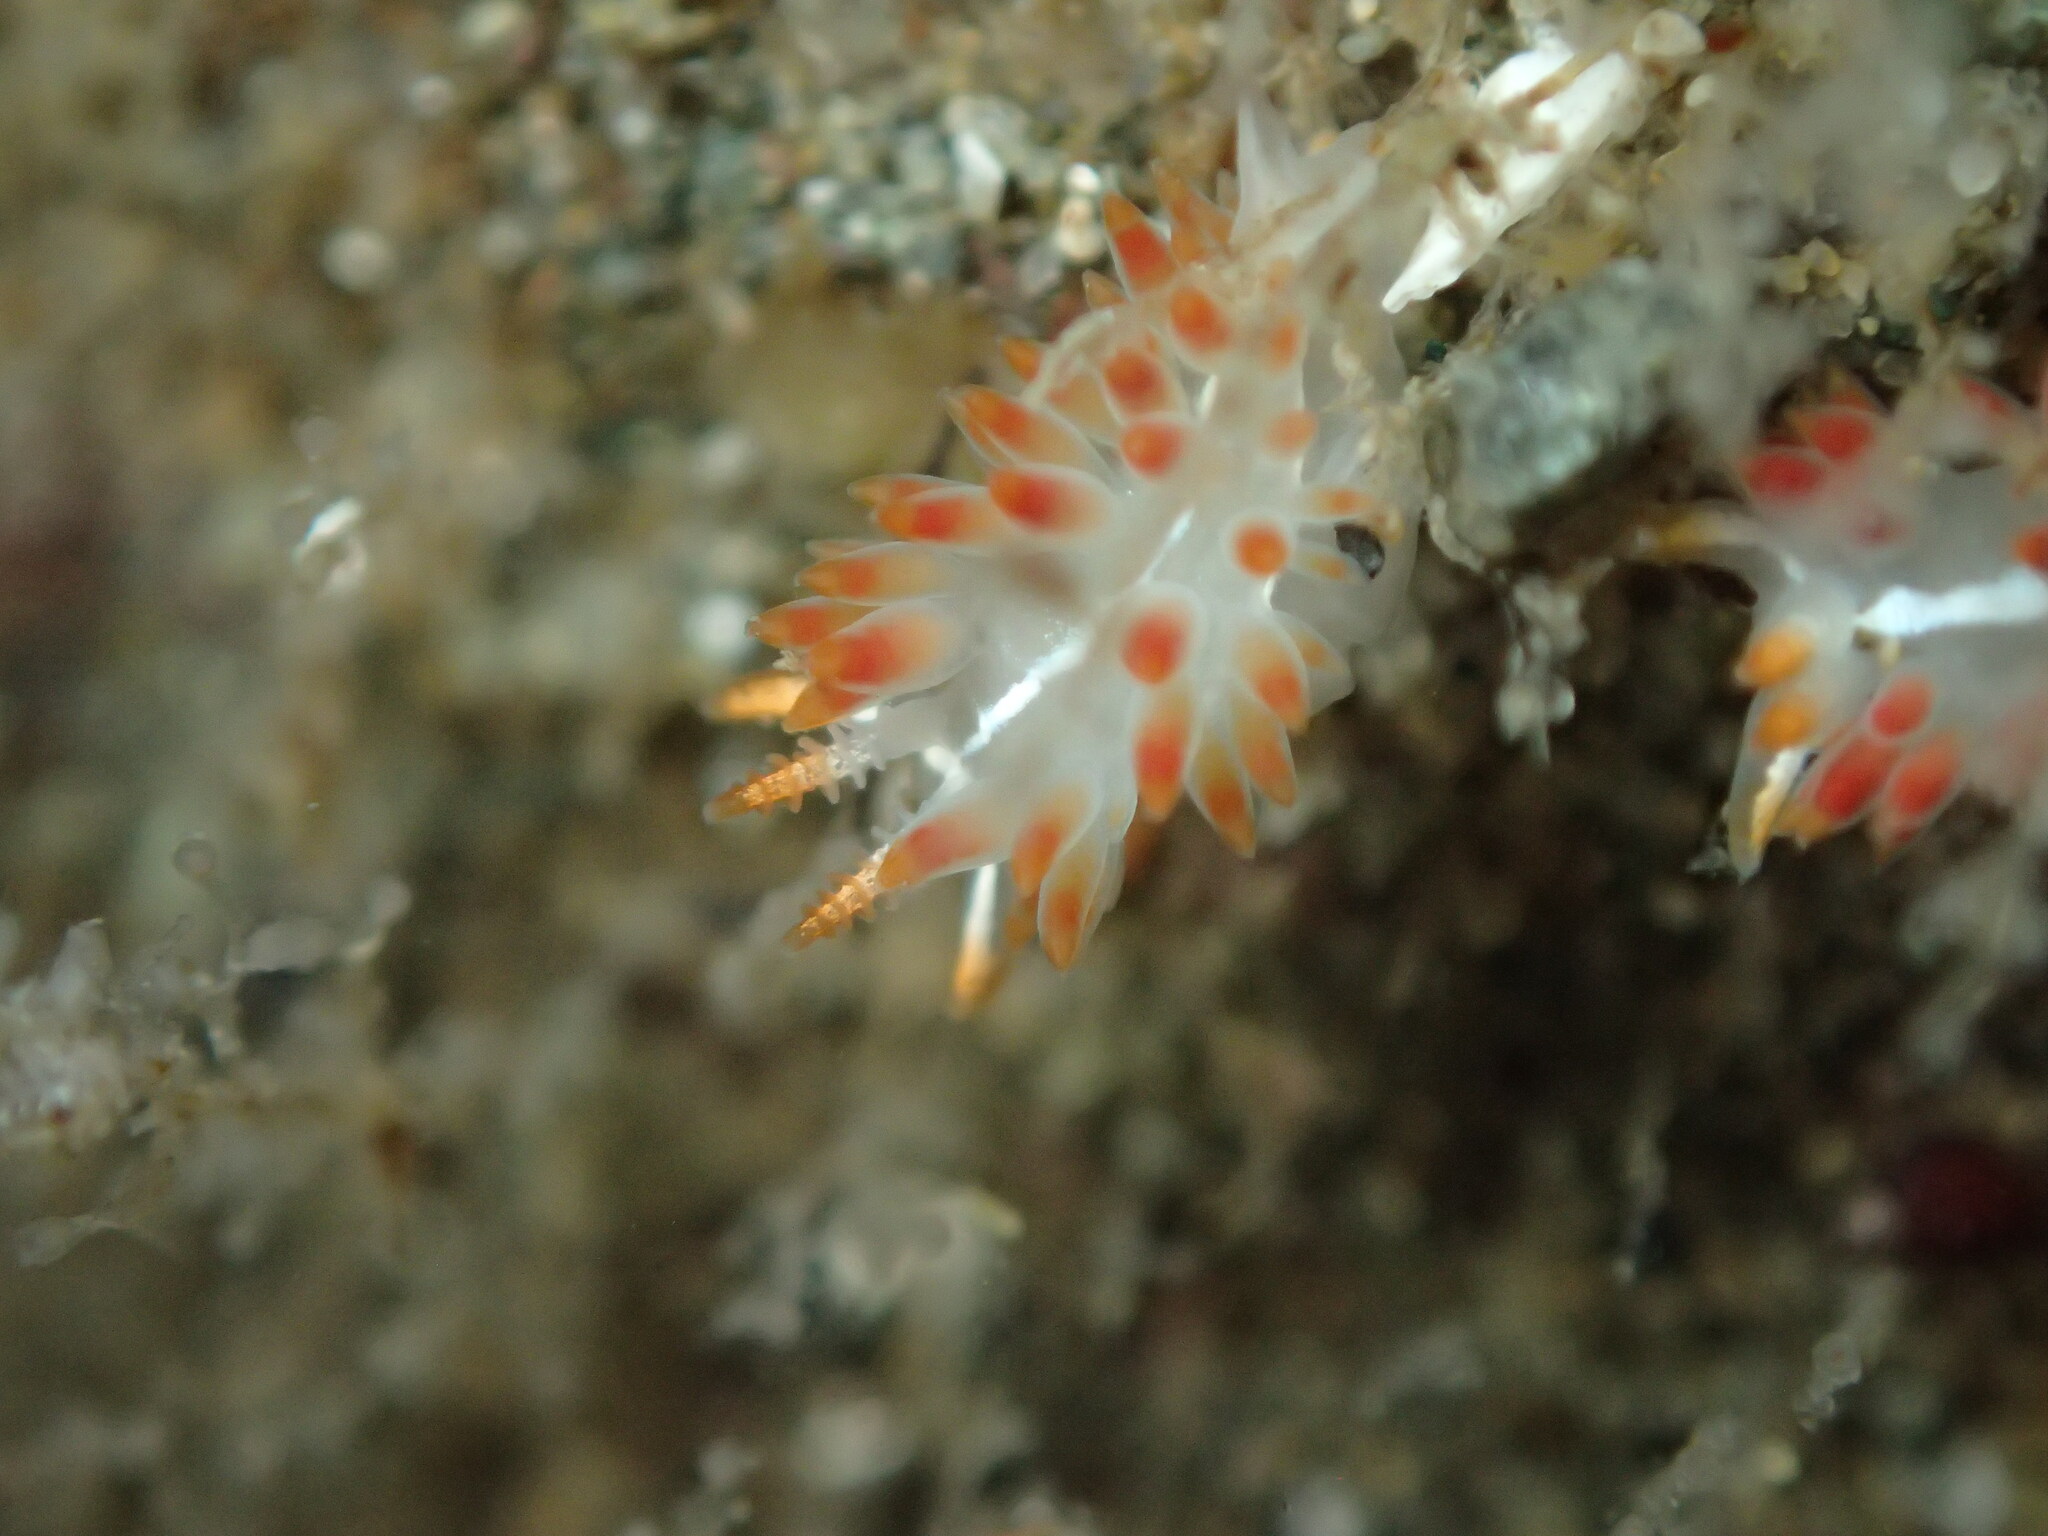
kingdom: Animalia
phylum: Mollusca
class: Gastropoda
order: Nudibranchia
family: Coryphellidae
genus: Coryphella
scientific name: Coryphella trilineata
